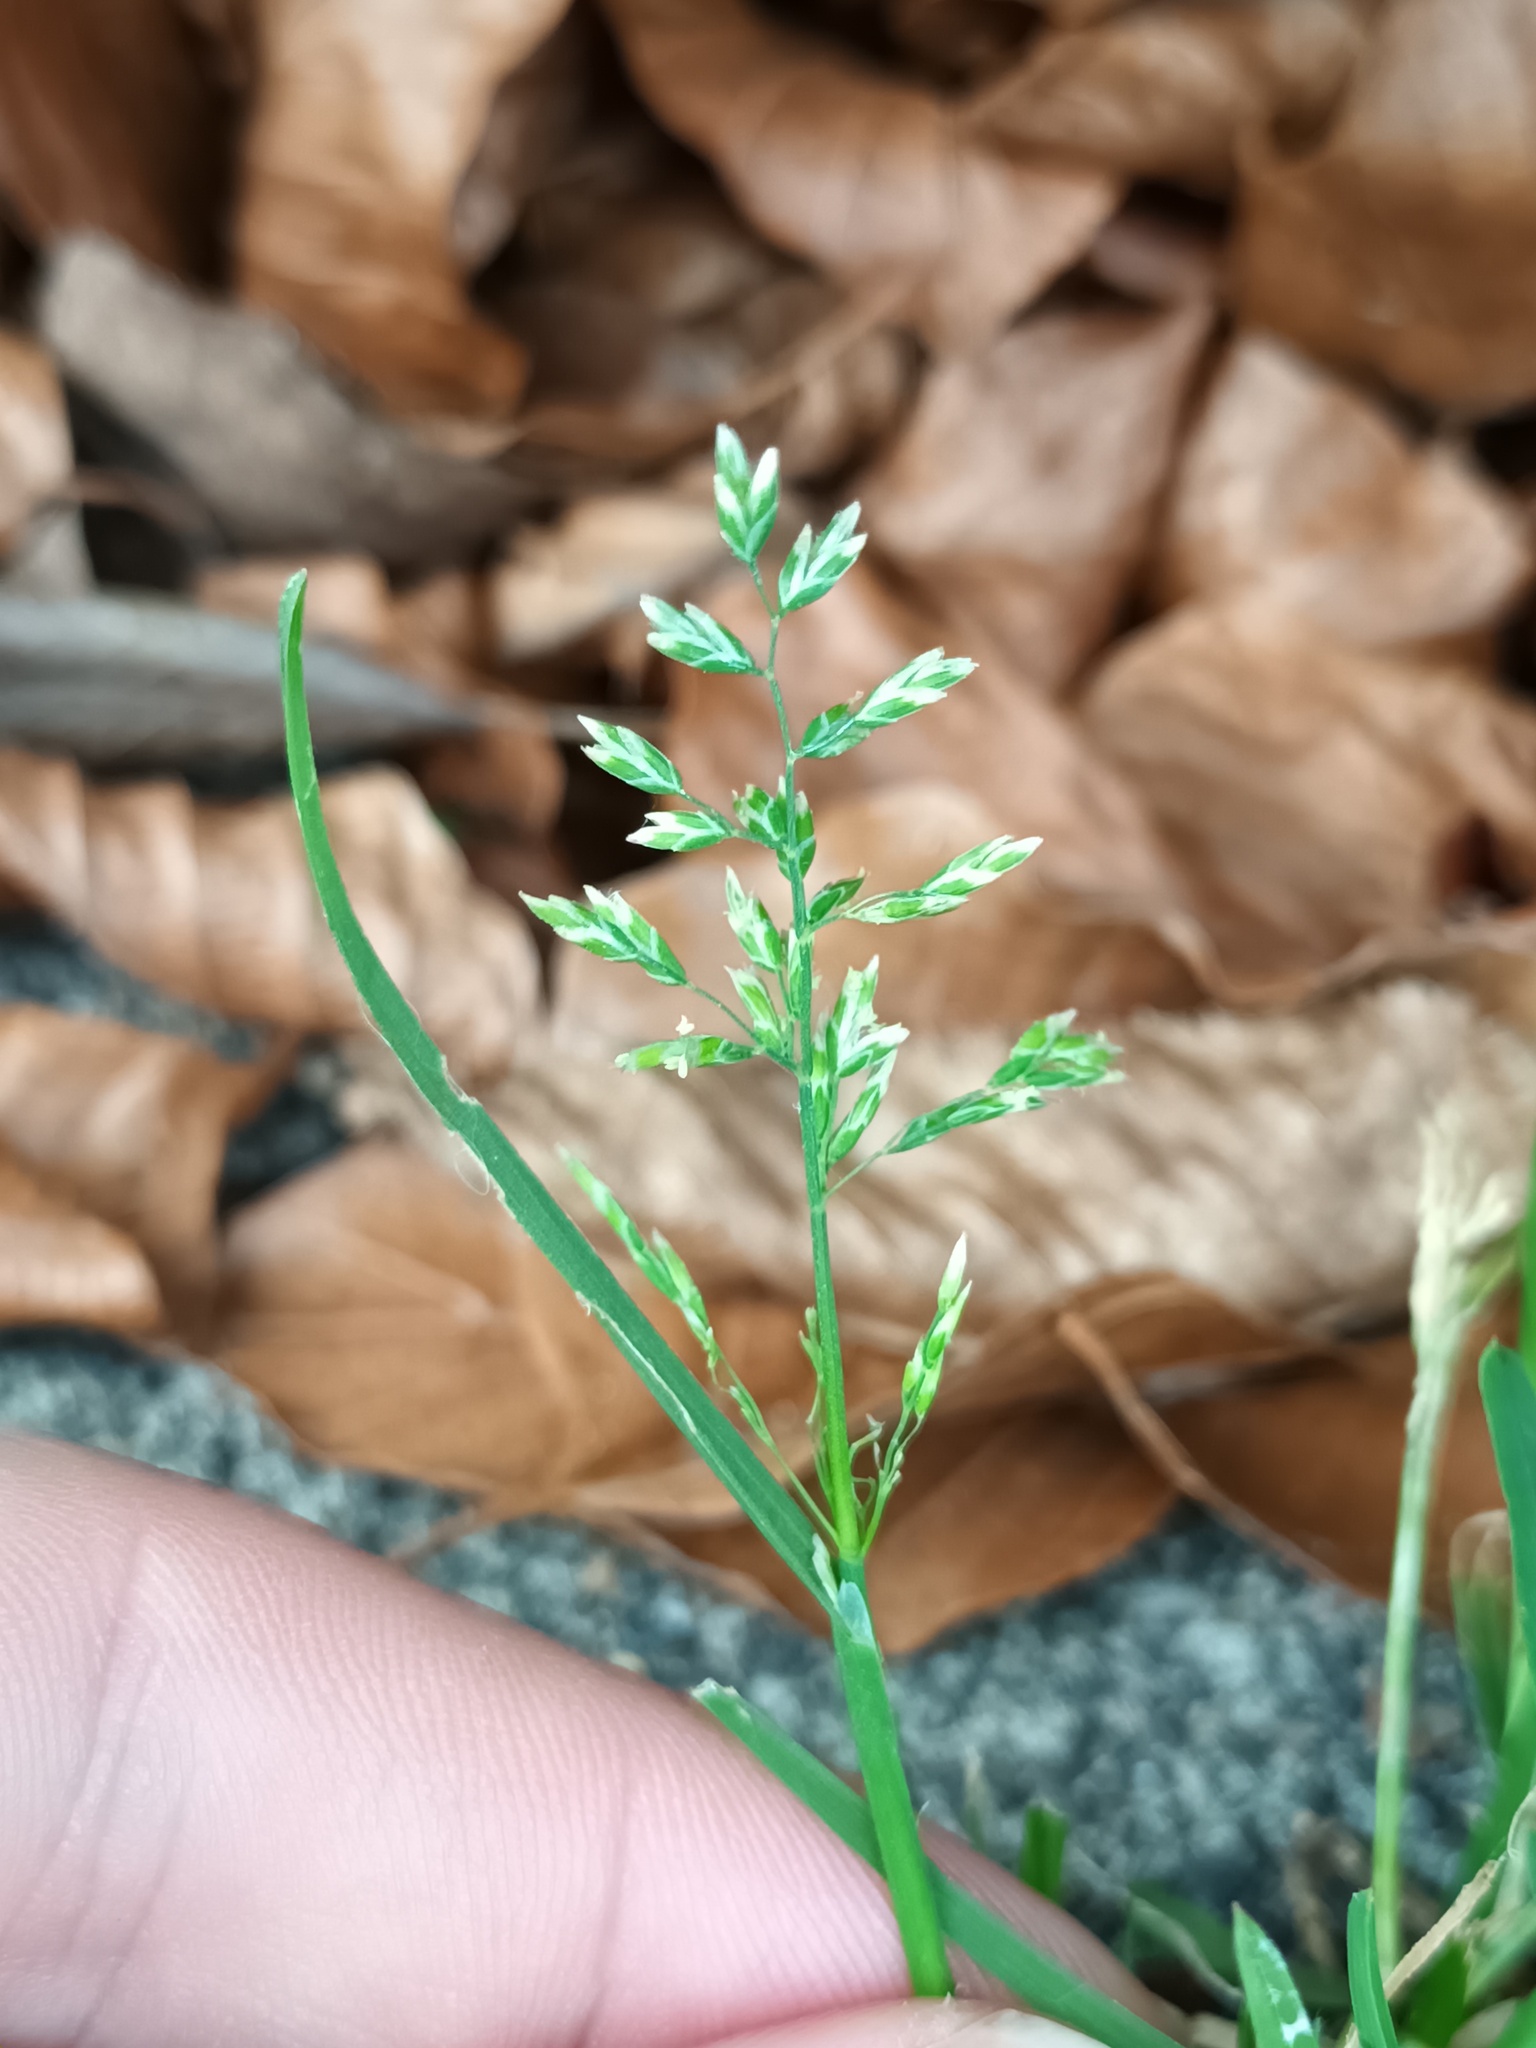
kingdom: Plantae
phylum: Tracheophyta
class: Liliopsida
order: Poales
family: Poaceae
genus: Poa
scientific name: Poa annua
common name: Annual bluegrass
